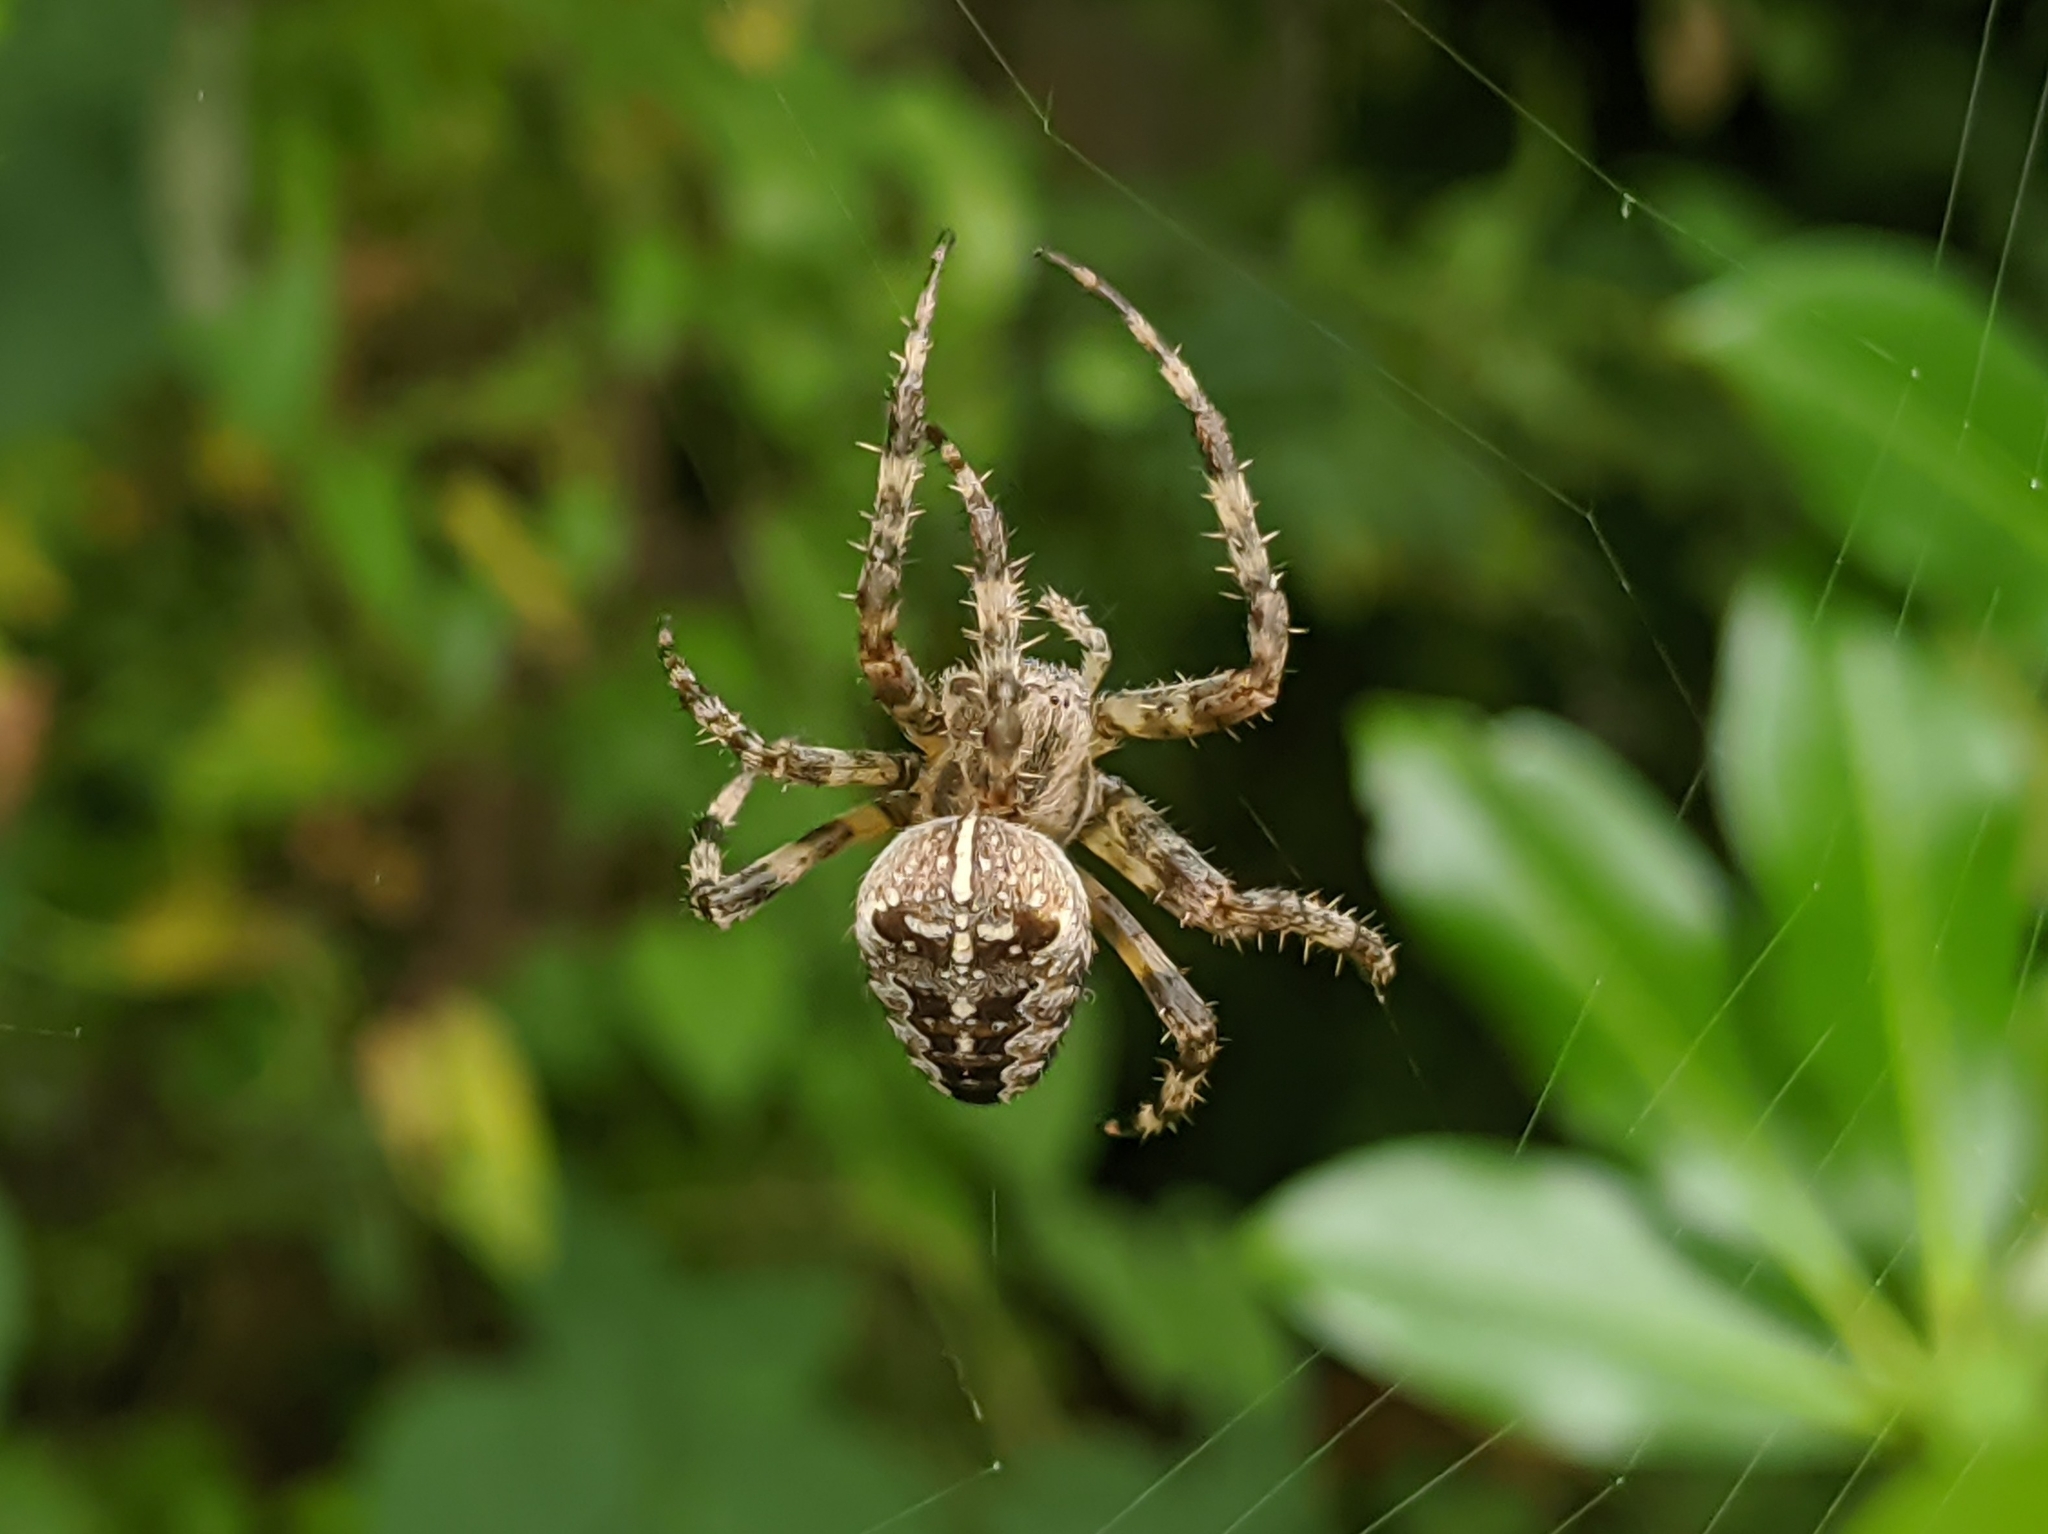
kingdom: Animalia
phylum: Arthropoda
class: Arachnida
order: Araneae
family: Araneidae
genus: Araneus
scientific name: Araneus diadematus
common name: Cross orbweaver
